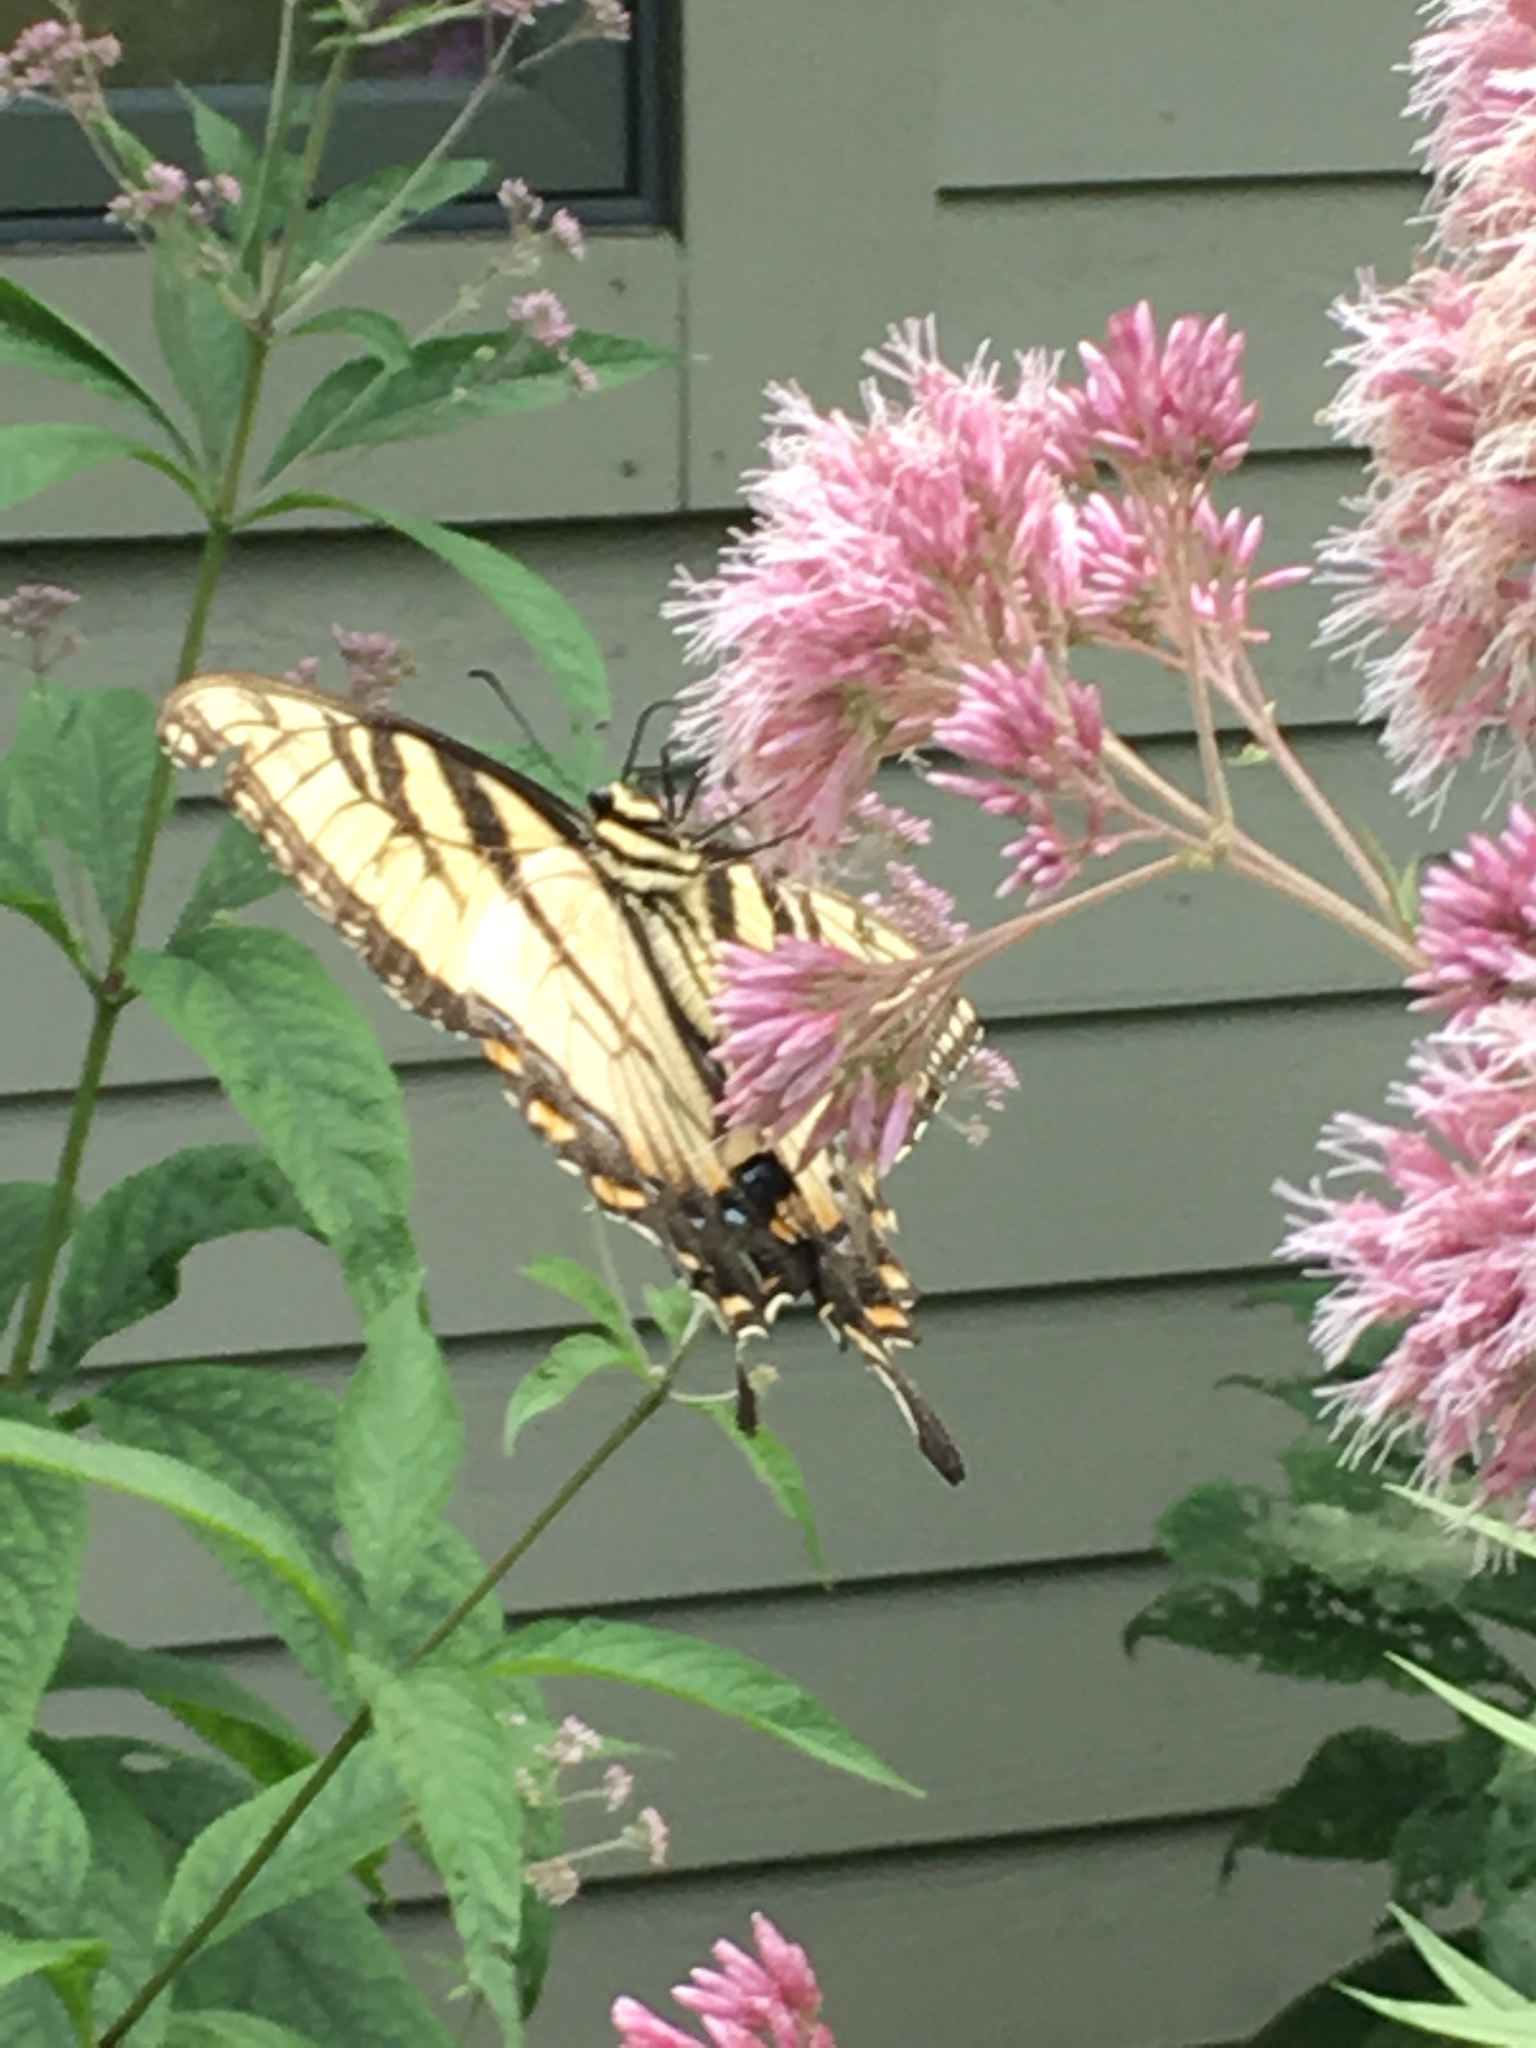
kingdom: Animalia
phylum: Arthropoda
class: Insecta
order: Lepidoptera
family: Papilionidae
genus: Papilio
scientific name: Papilio glaucus
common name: Tiger swallowtail
